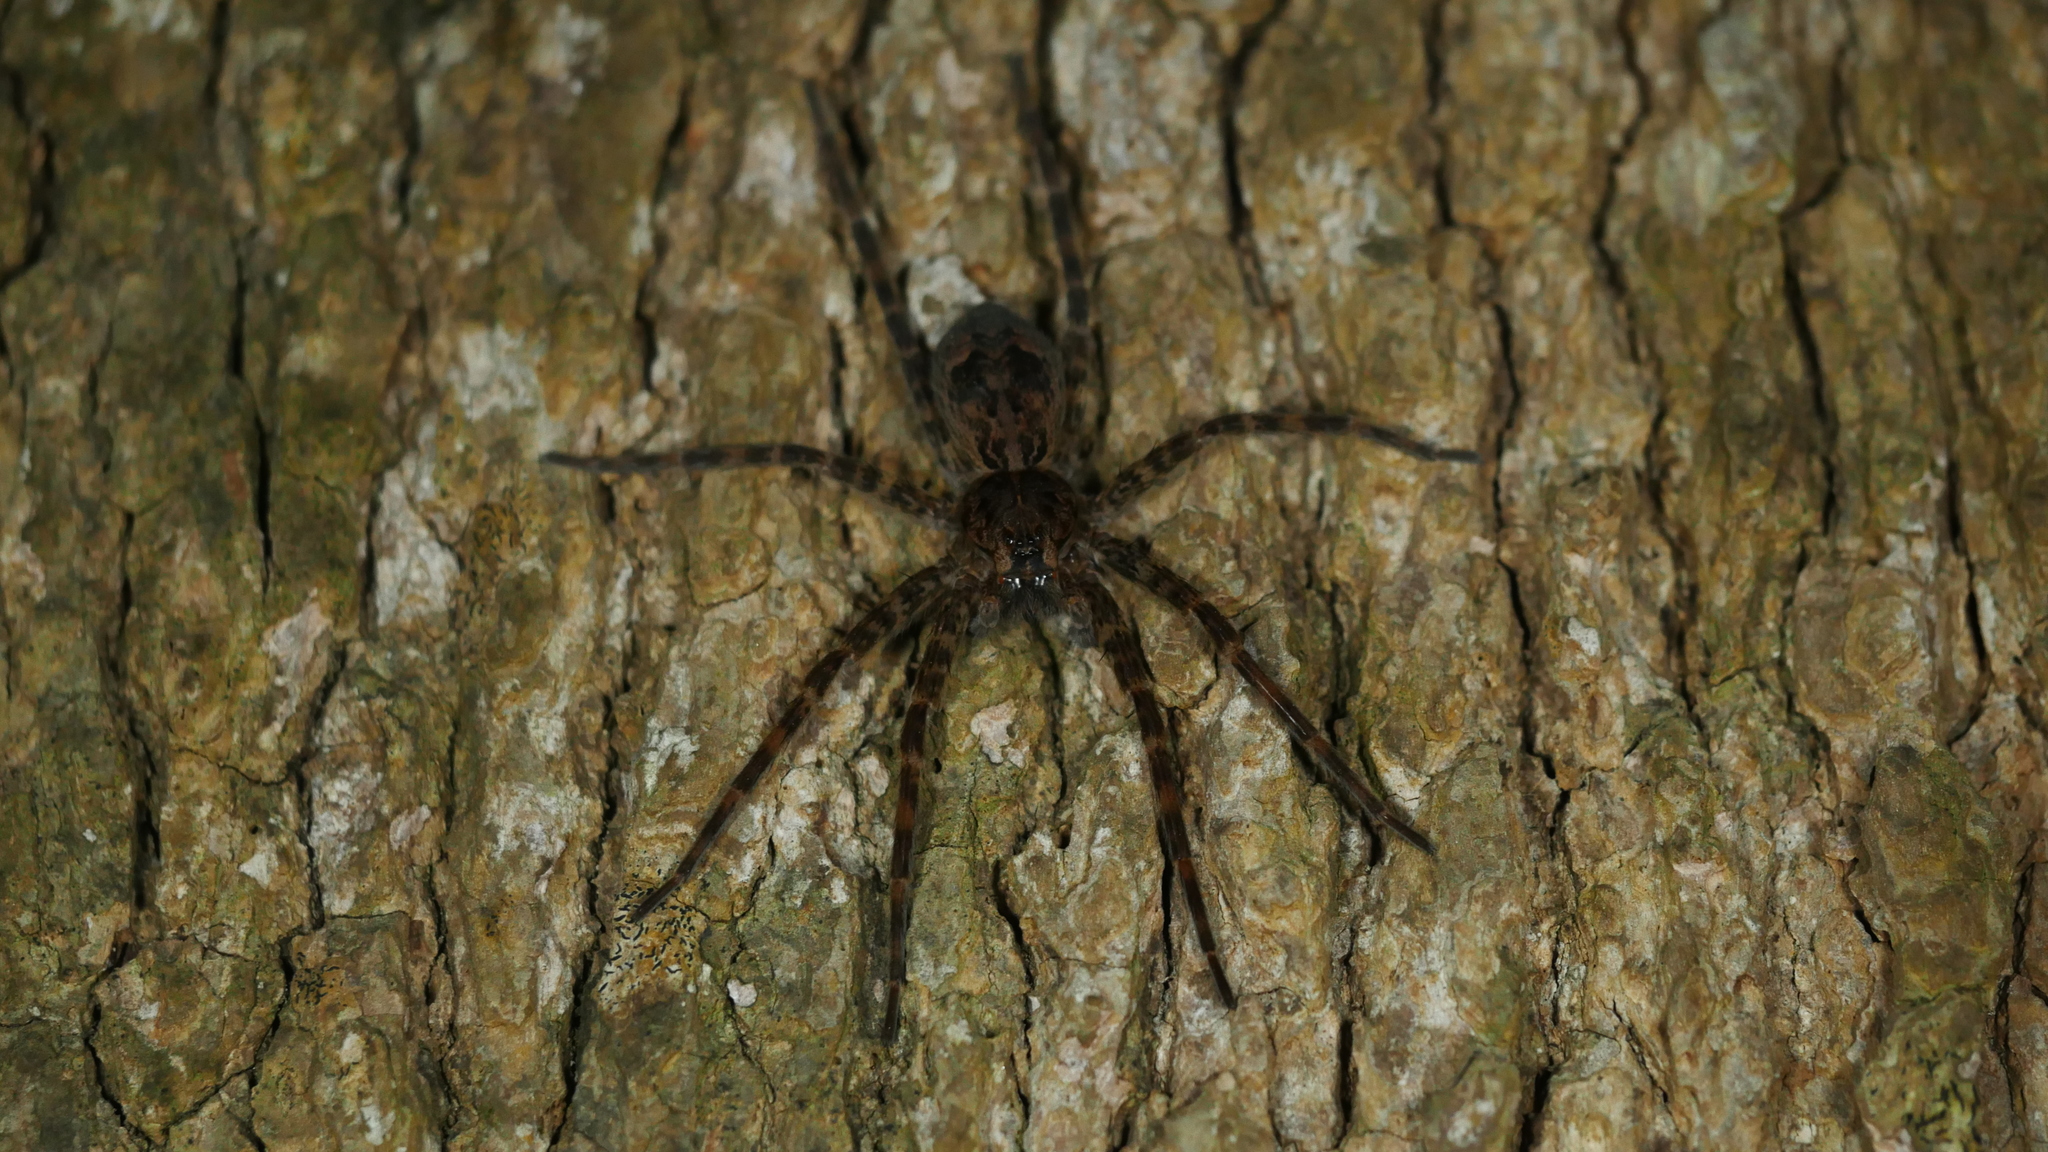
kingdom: Animalia
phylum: Arthropoda
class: Arachnida
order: Araneae
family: Pisauridae
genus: Dolomedes
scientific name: Dolomedes tenebrosus
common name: Dark fishing spider
